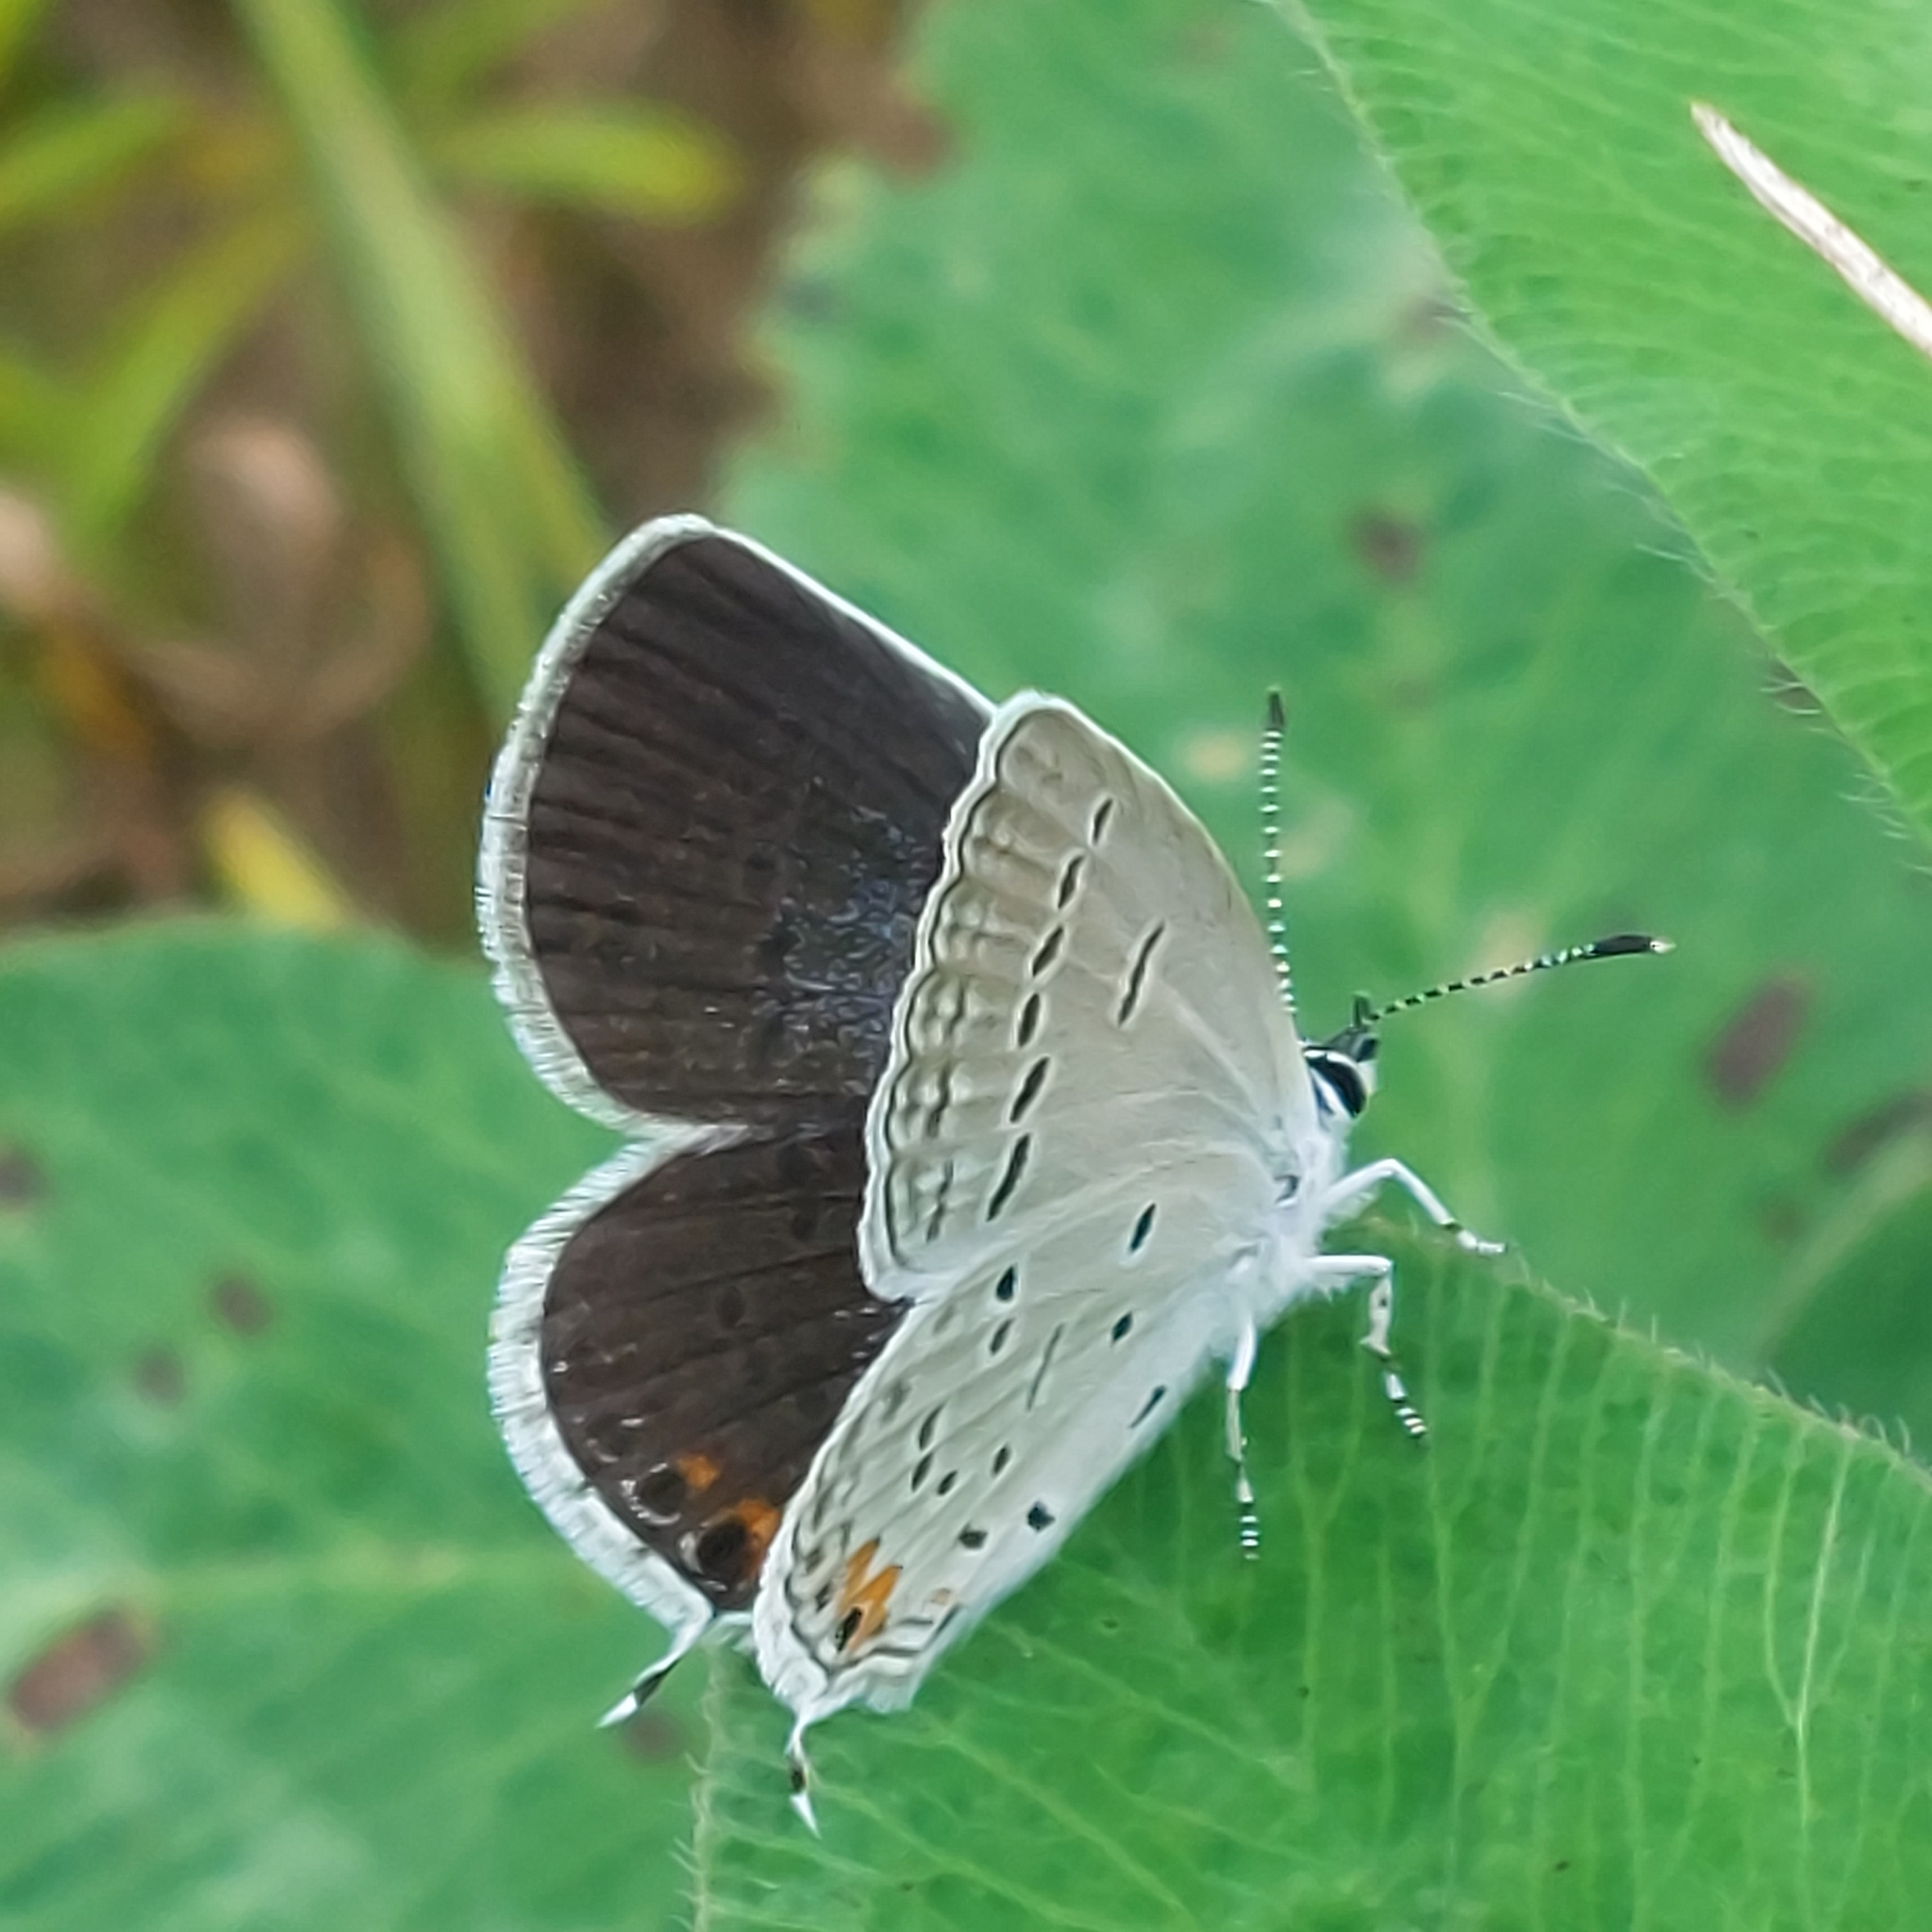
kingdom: Animalia
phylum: Arthropoda
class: Insecta
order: Lepidoptera
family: Lycaenidae
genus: Elkalyce
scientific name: Elkalyce comyntas
